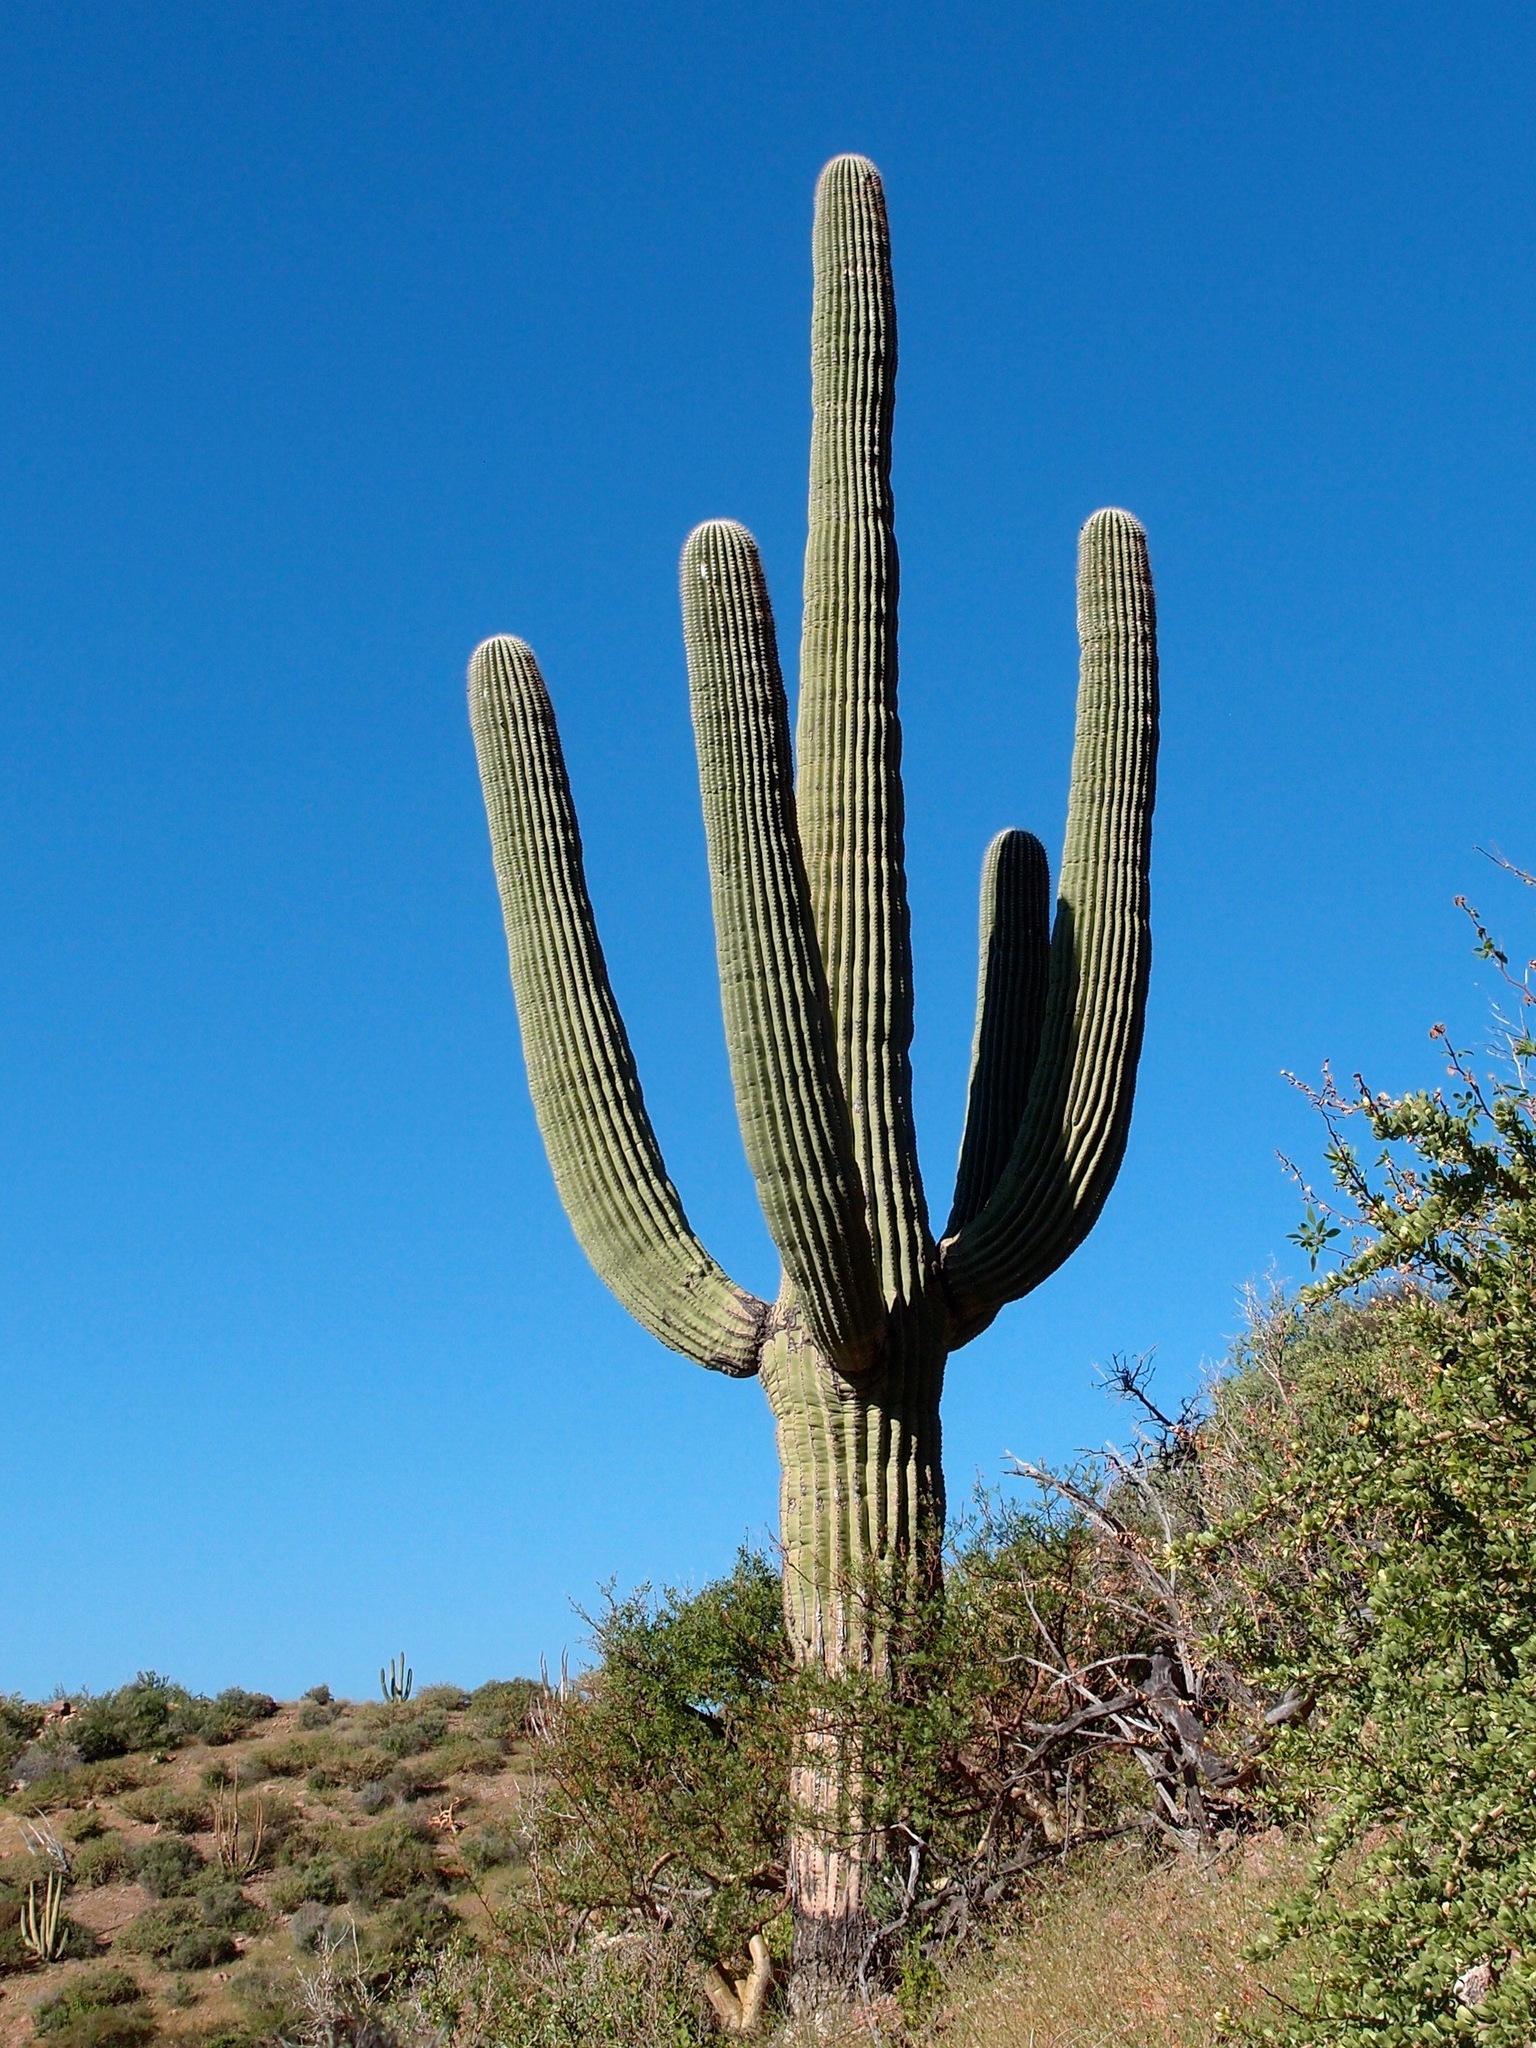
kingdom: Plantae
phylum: Tracheophyta
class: Magnoliopsida
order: Caryophyllales
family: Cactaceae
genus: Carnegiea
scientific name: Carnegiea gigantea
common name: Saguaro
